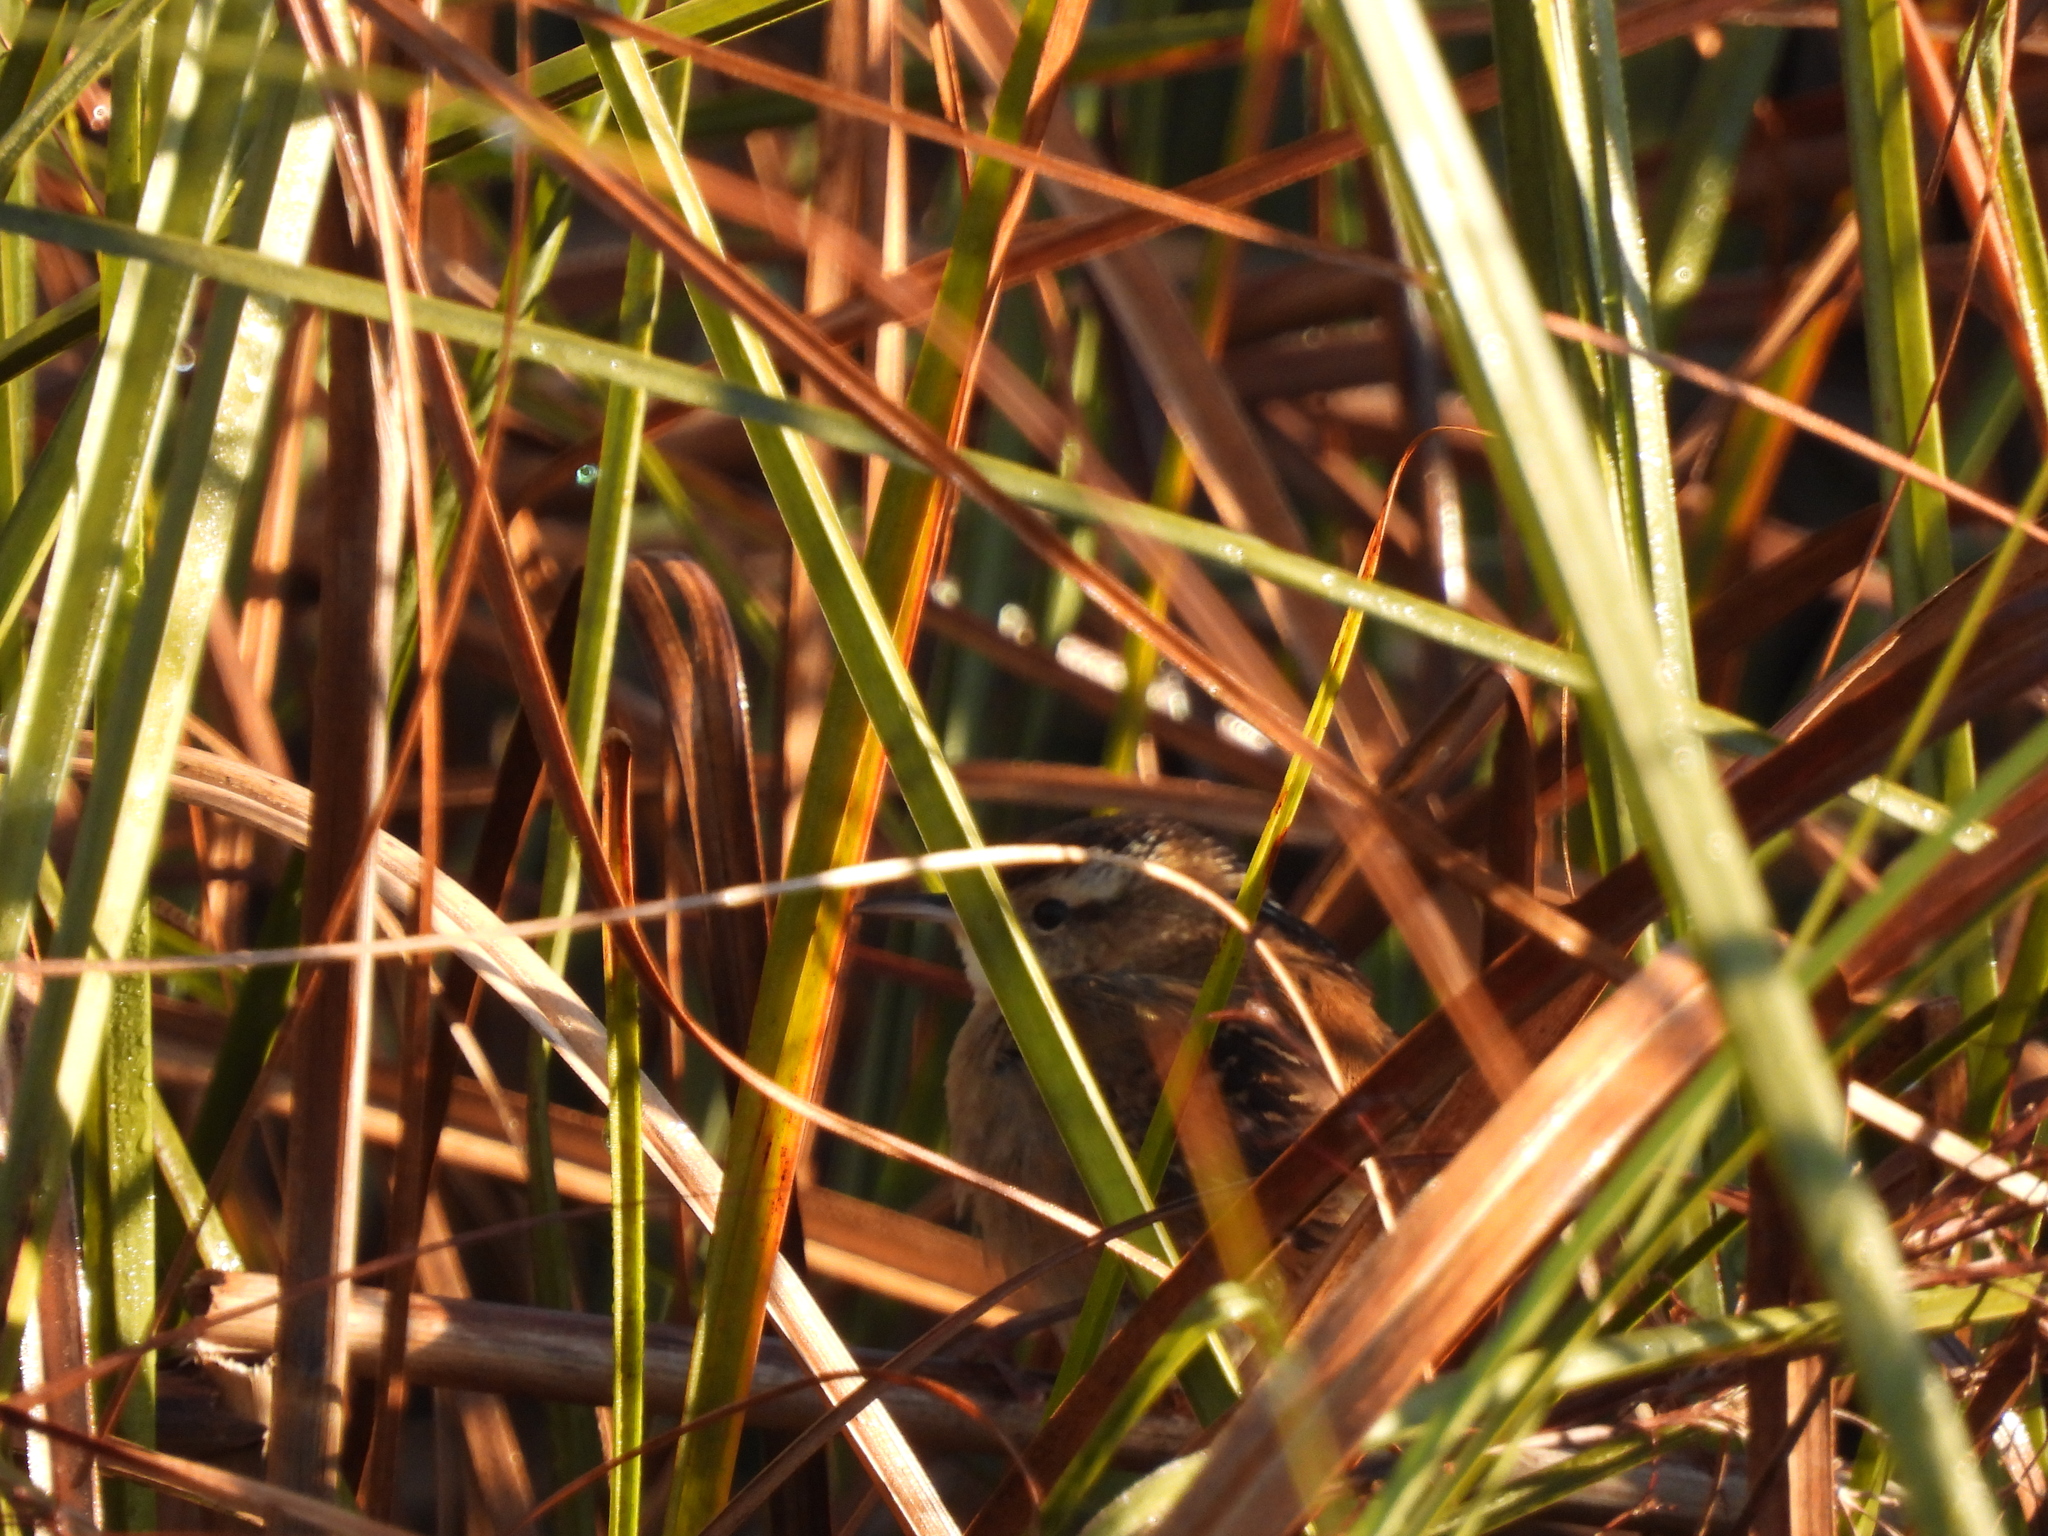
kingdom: Animalia
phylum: Chordata
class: Aves
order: Passeriformes
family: Troglodytidae
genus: Cistothorus
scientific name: Cistothorus palustris
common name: Marsh wren
